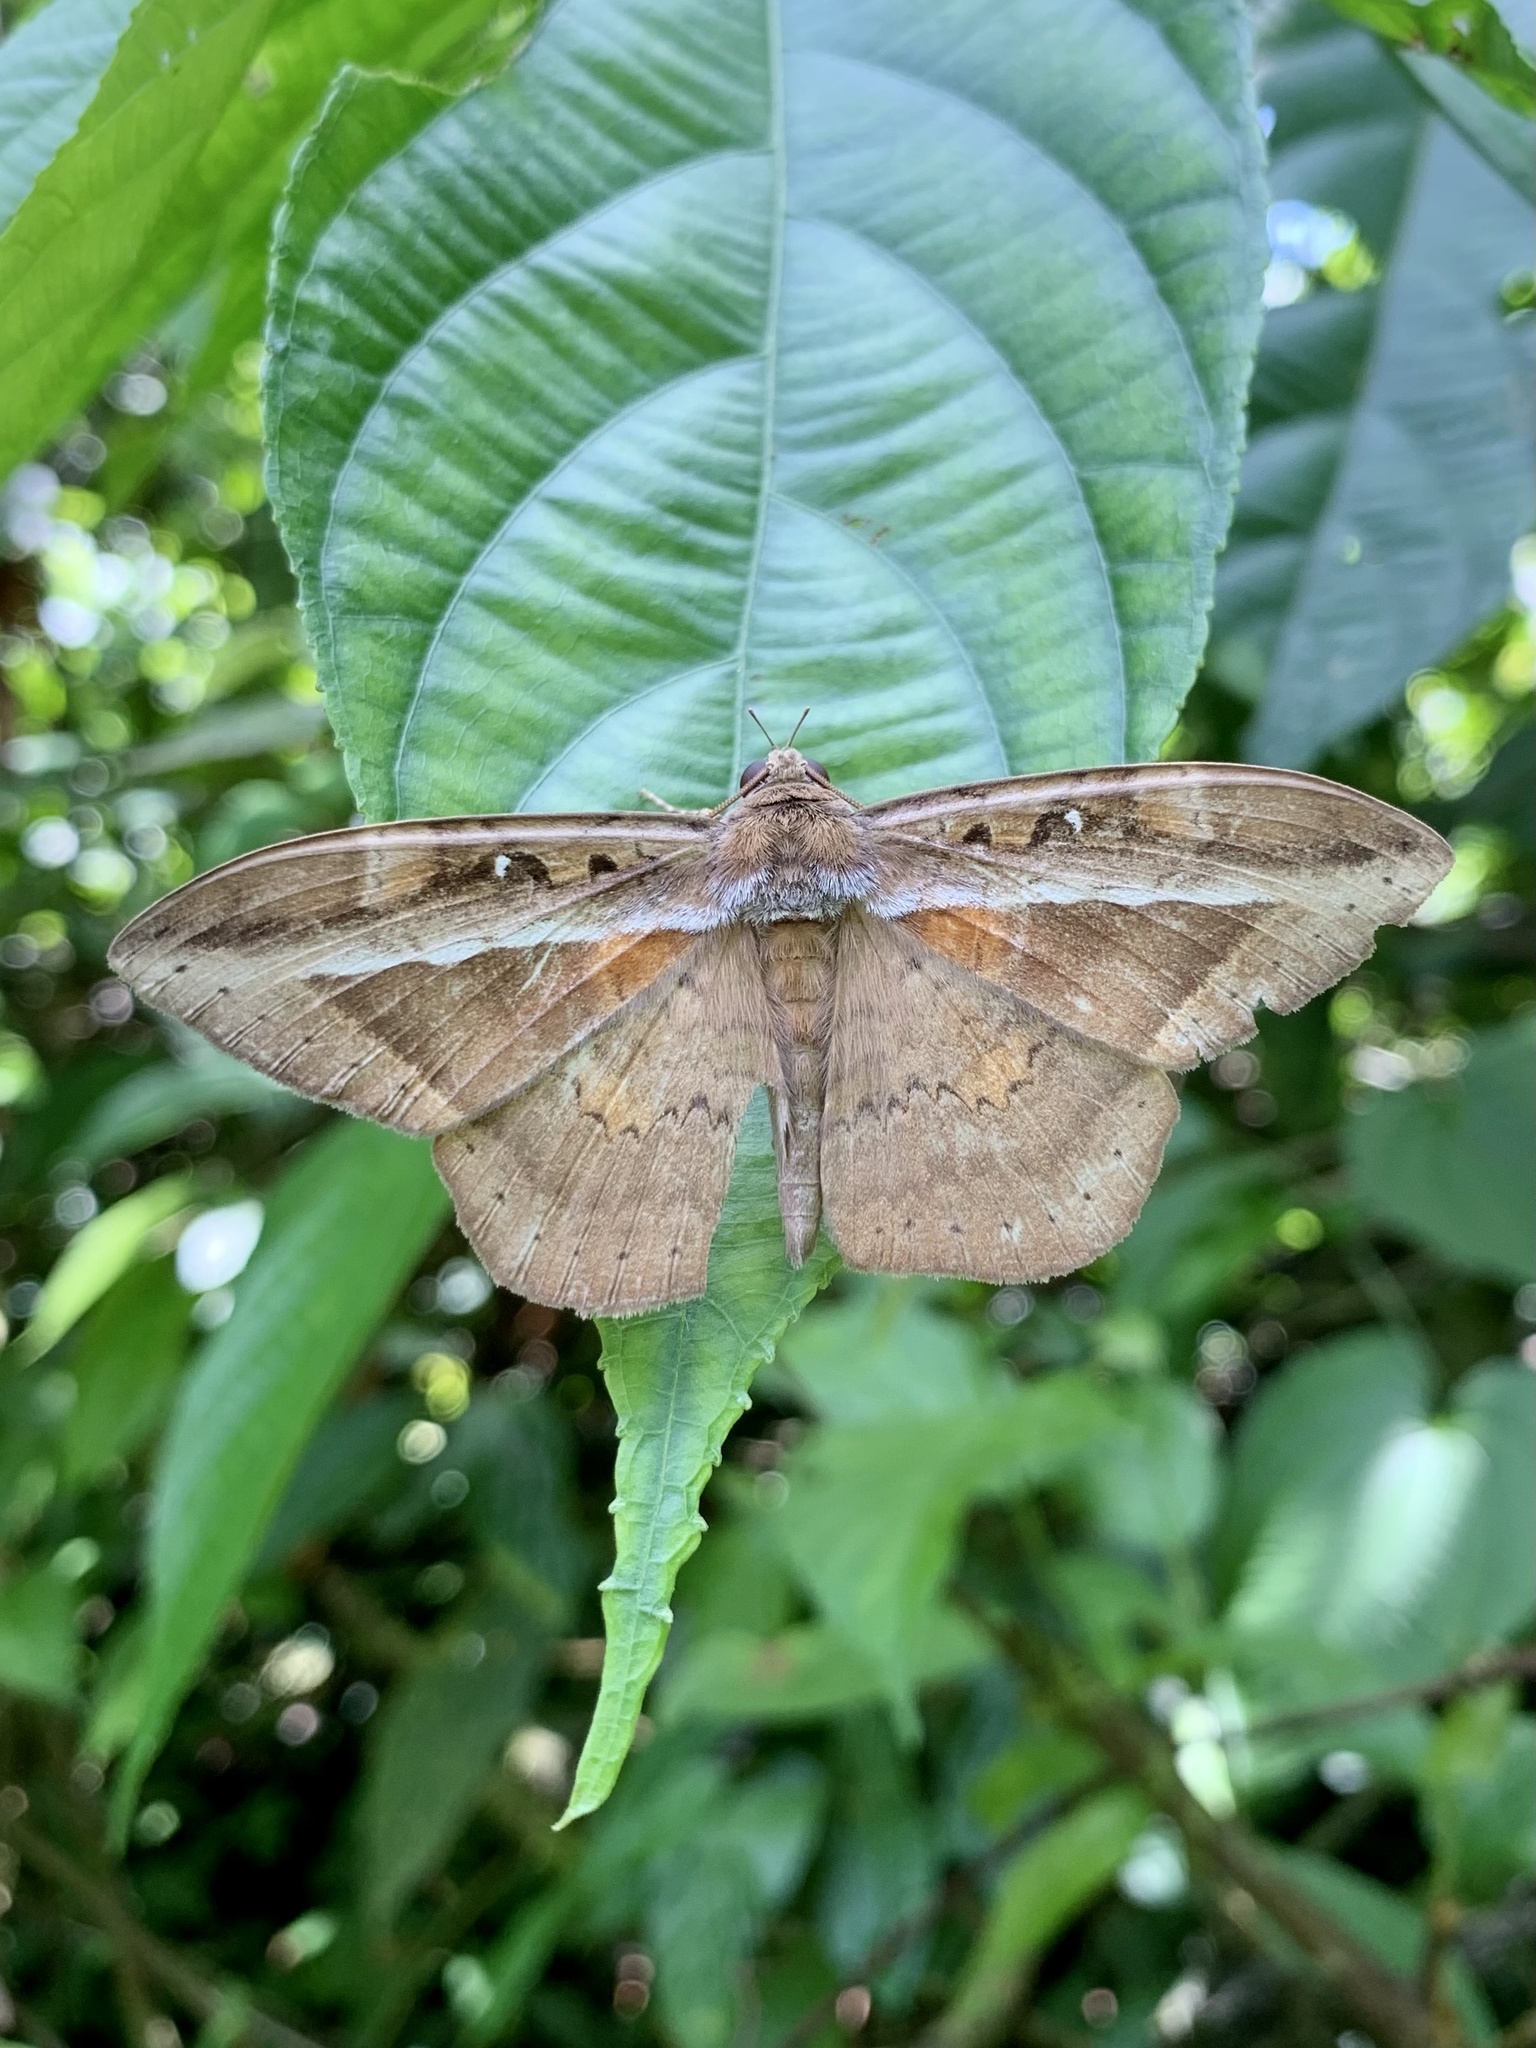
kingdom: Animalia
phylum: Arthropoda
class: Insecta
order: Lepidoptera
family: Erebidae
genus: Hemeroblemma
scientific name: Hemeroblemma opigena
